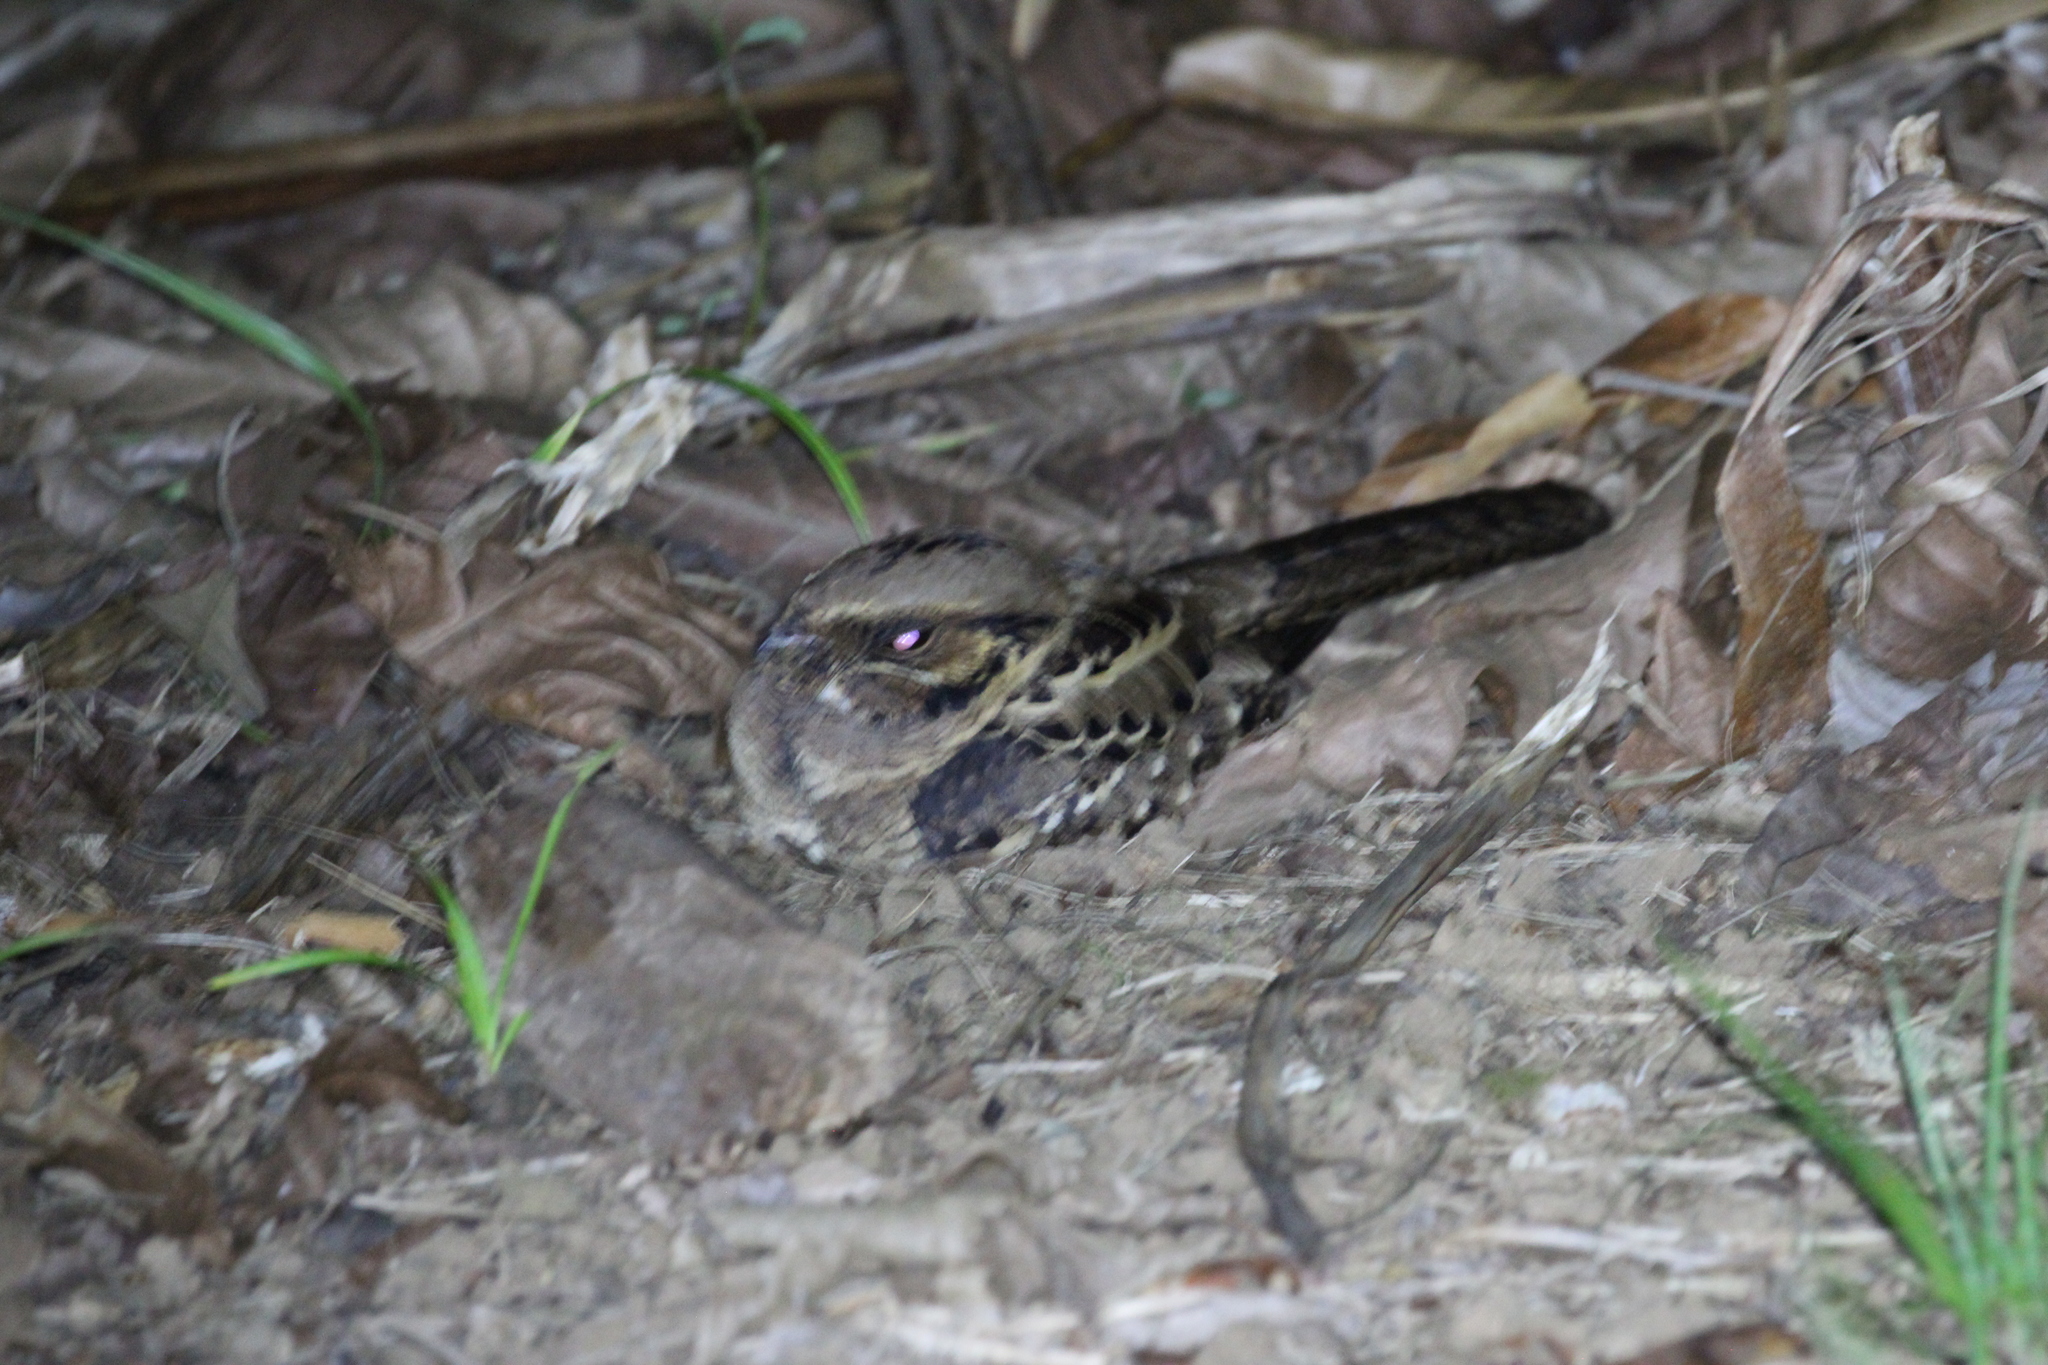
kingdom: Animalia
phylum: Chordata
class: Aves
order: Caprimulgiformes
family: Caprimulgidae
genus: Nyctidromus
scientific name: Nyctidromus albicollis
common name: Pauraque
